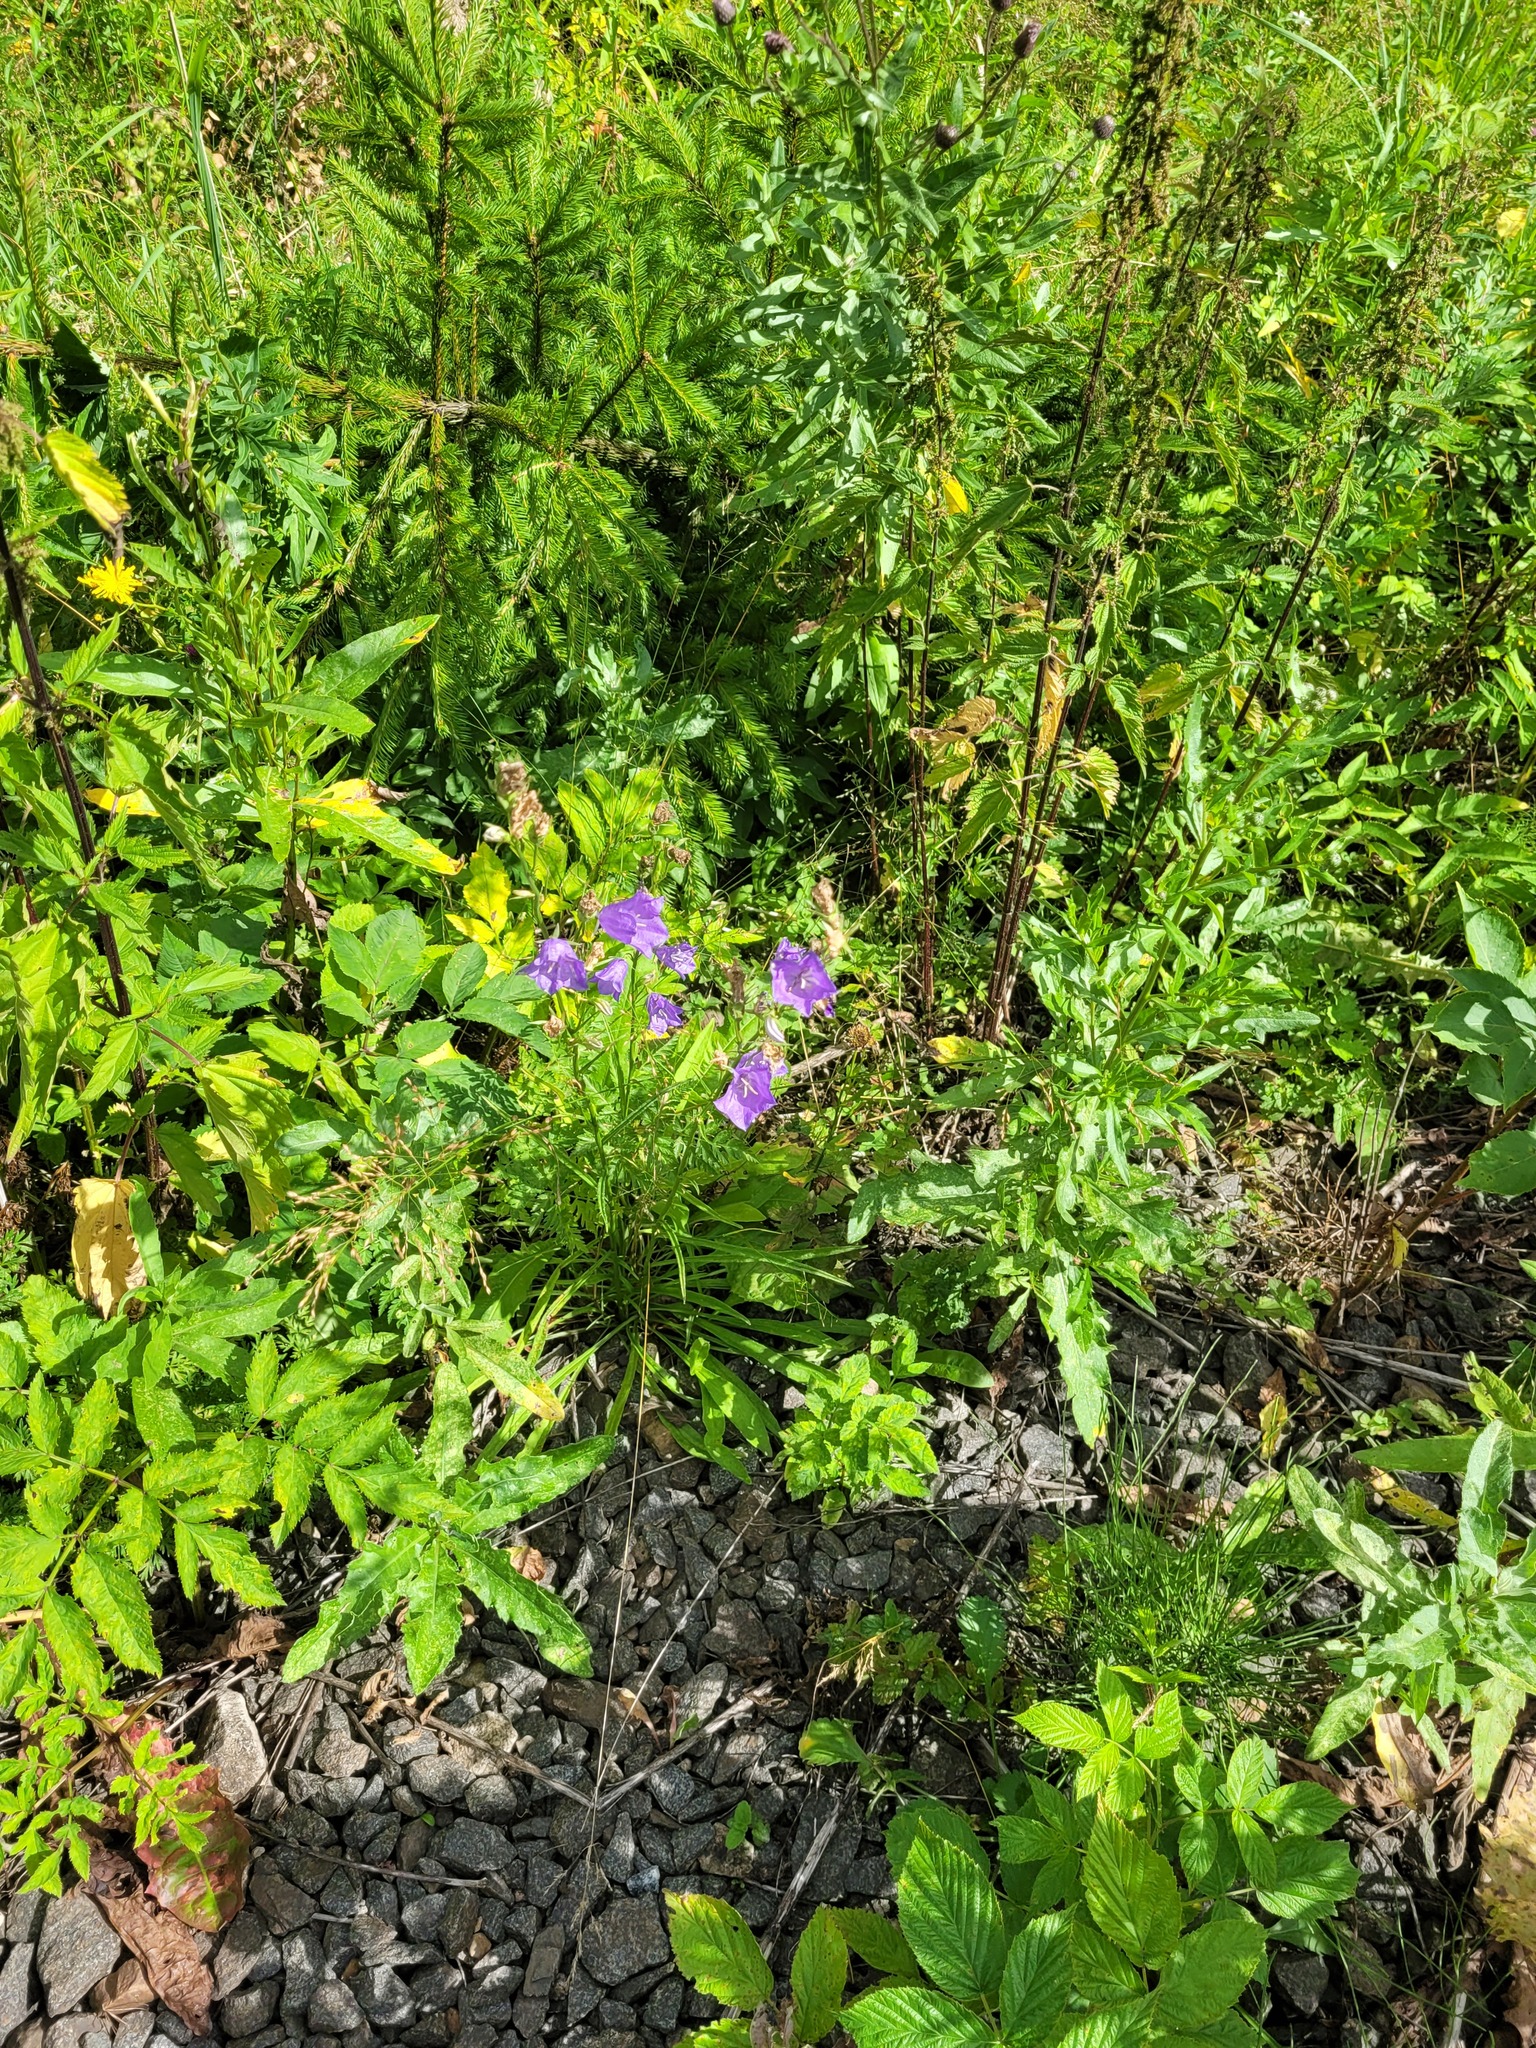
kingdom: Plantae
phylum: Tracheophyta
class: Magnoliopsida
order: Asterales
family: Campanulaceae
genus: Campanula
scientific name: Campanula persicifolia
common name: Peach-leaved bellflower
